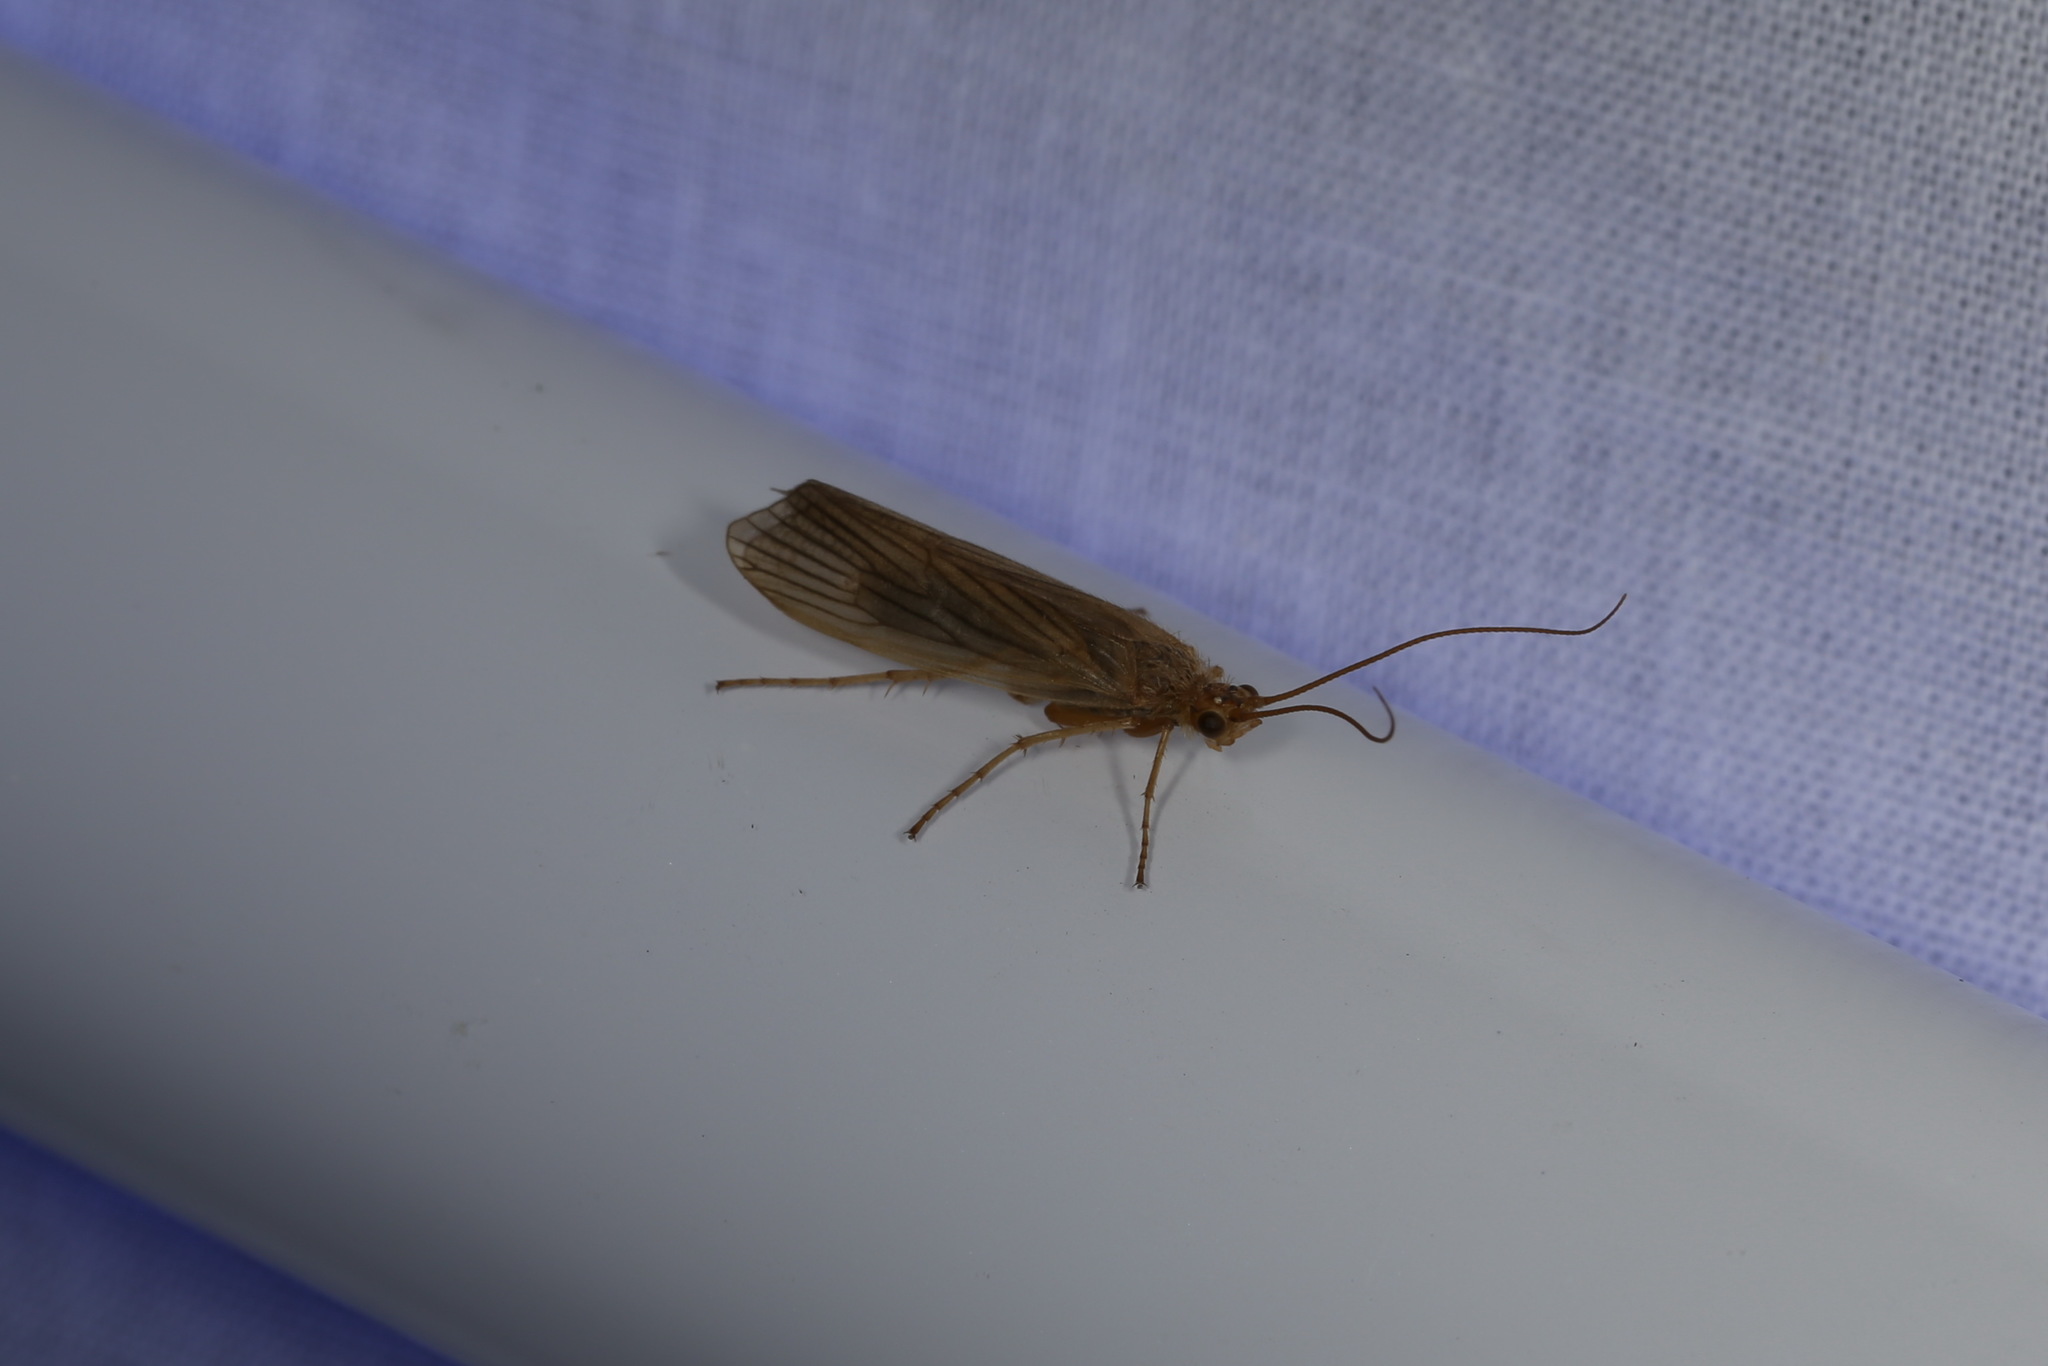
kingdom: Animalia
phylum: Arthropoda
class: Insecta
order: Trichoptera
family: Phryganeidae
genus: Agrypnia
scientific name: Agrypnia pagetana
